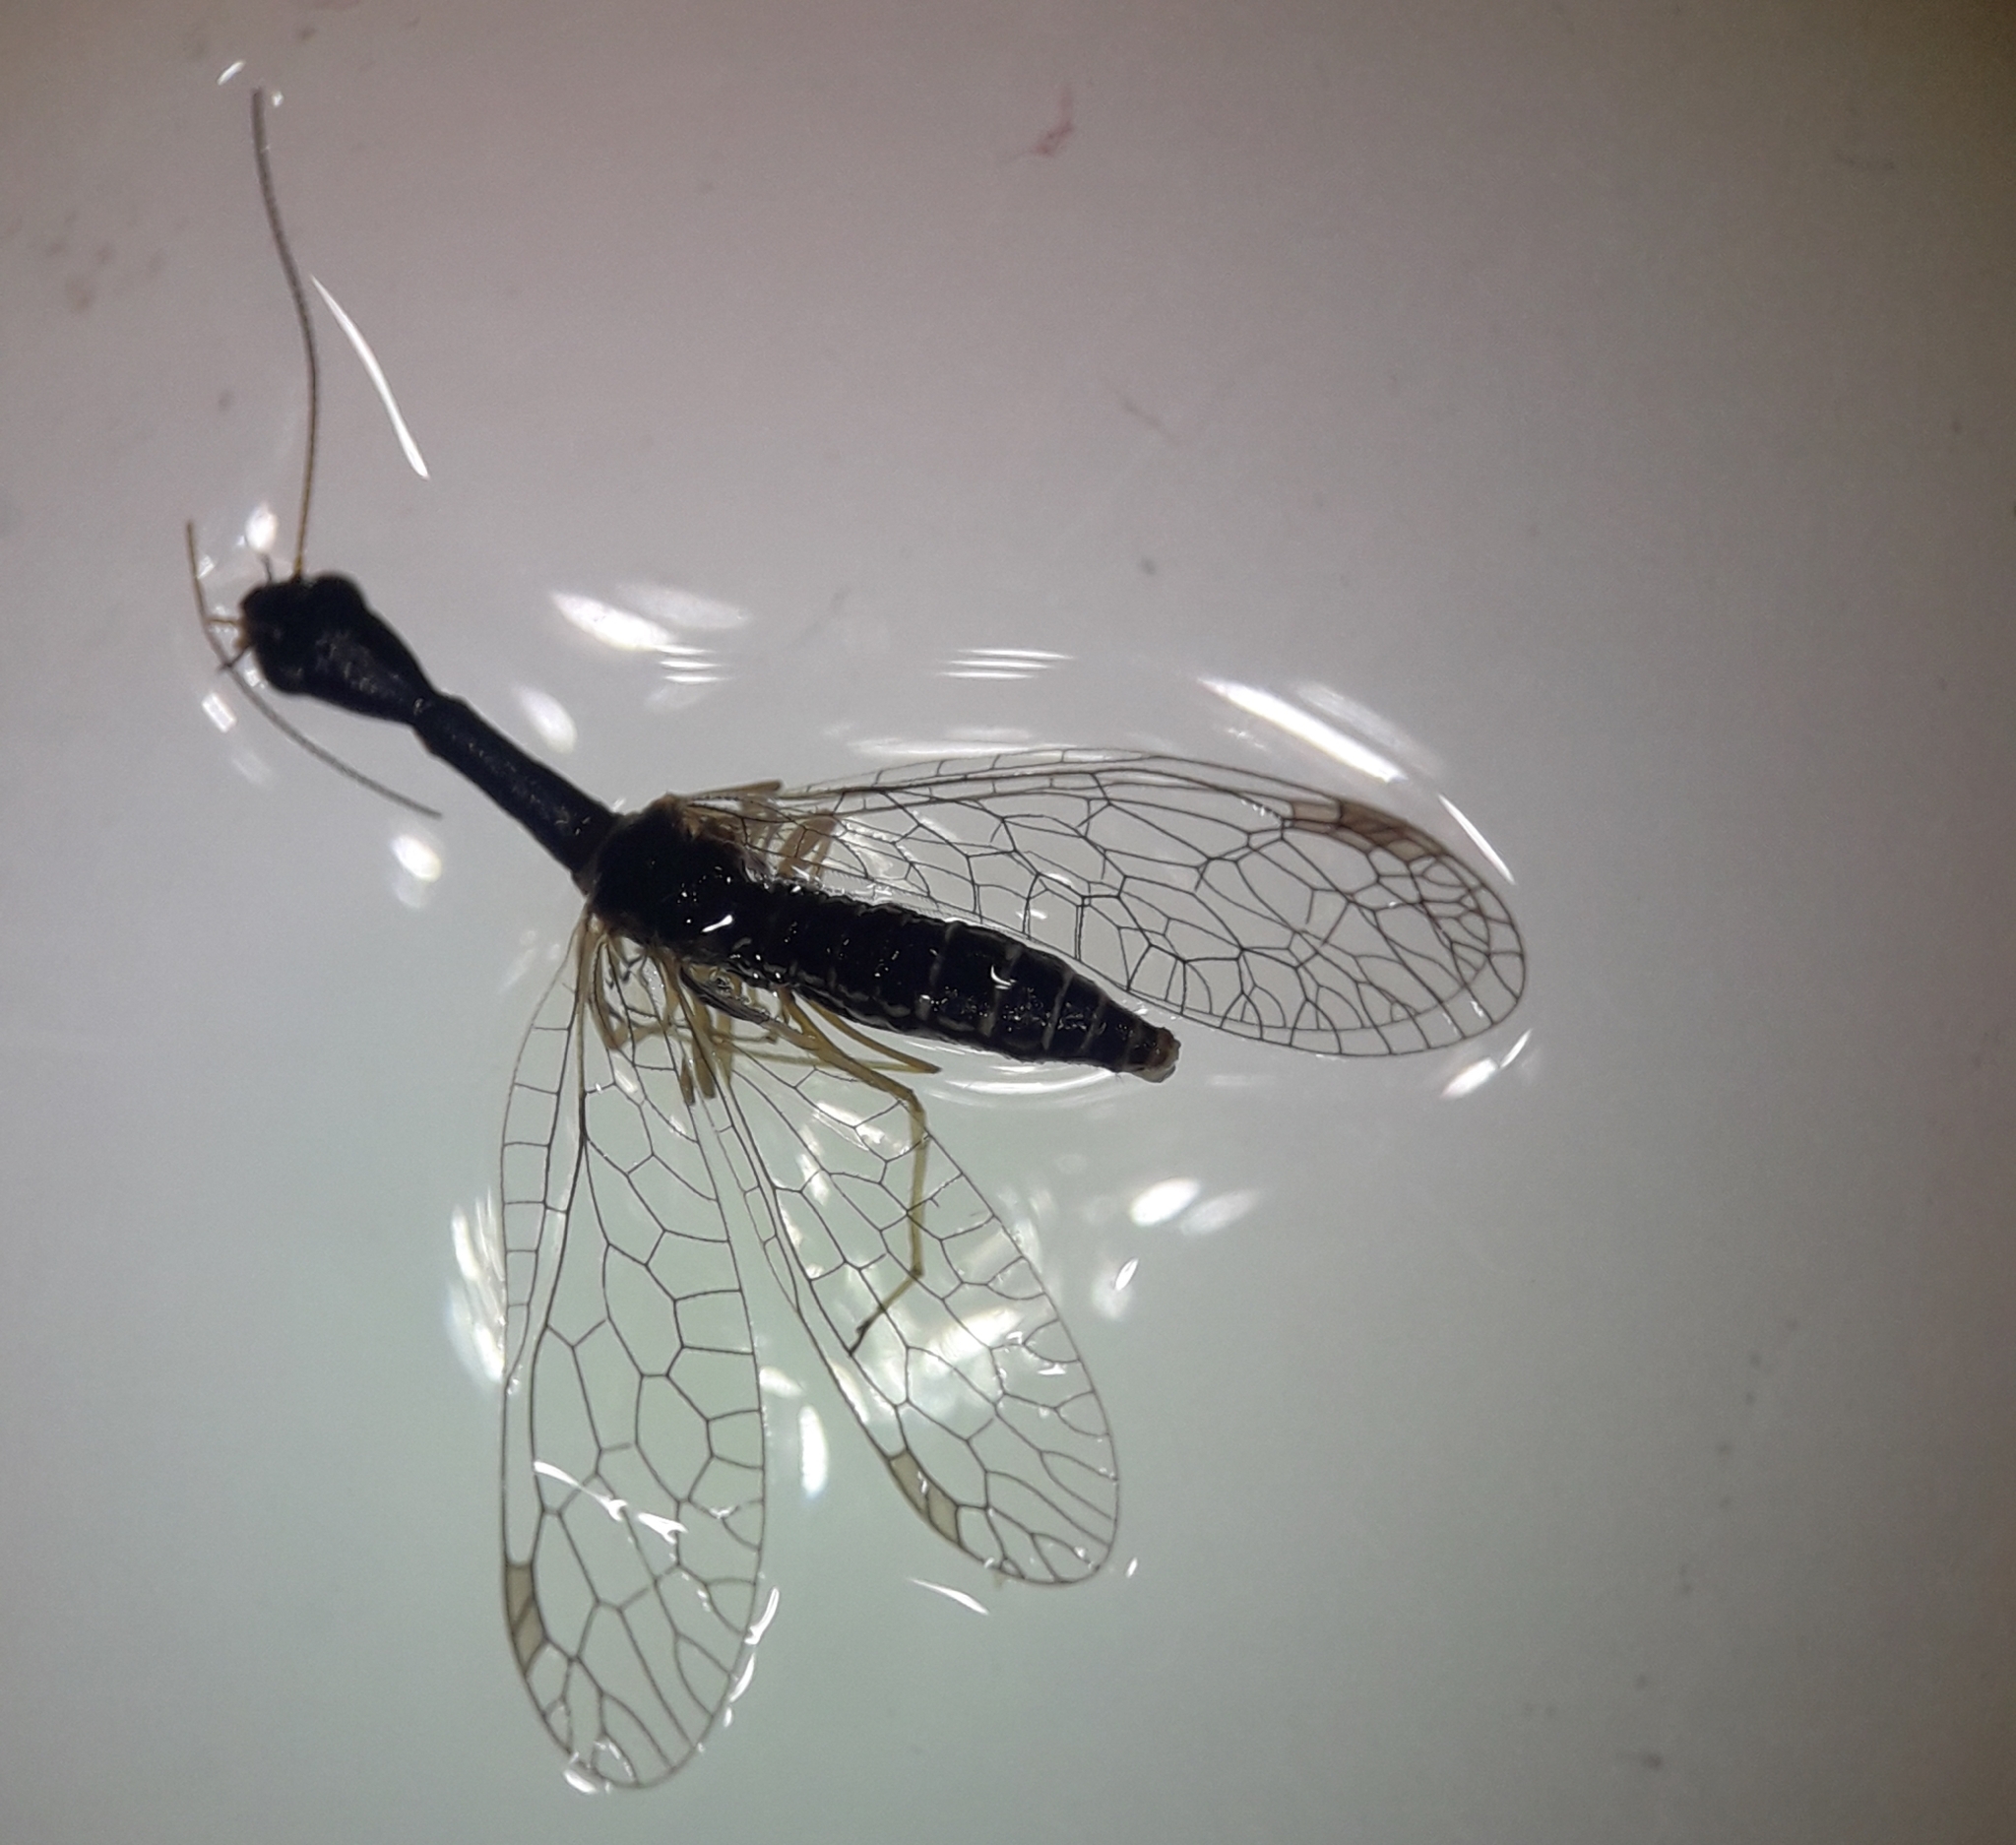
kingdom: Animalia
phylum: Arthropoda
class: Insecta
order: Raphidioptera
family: Raphidiidae
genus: Venustoraphidia
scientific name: Venustoraphidia nigricollis
